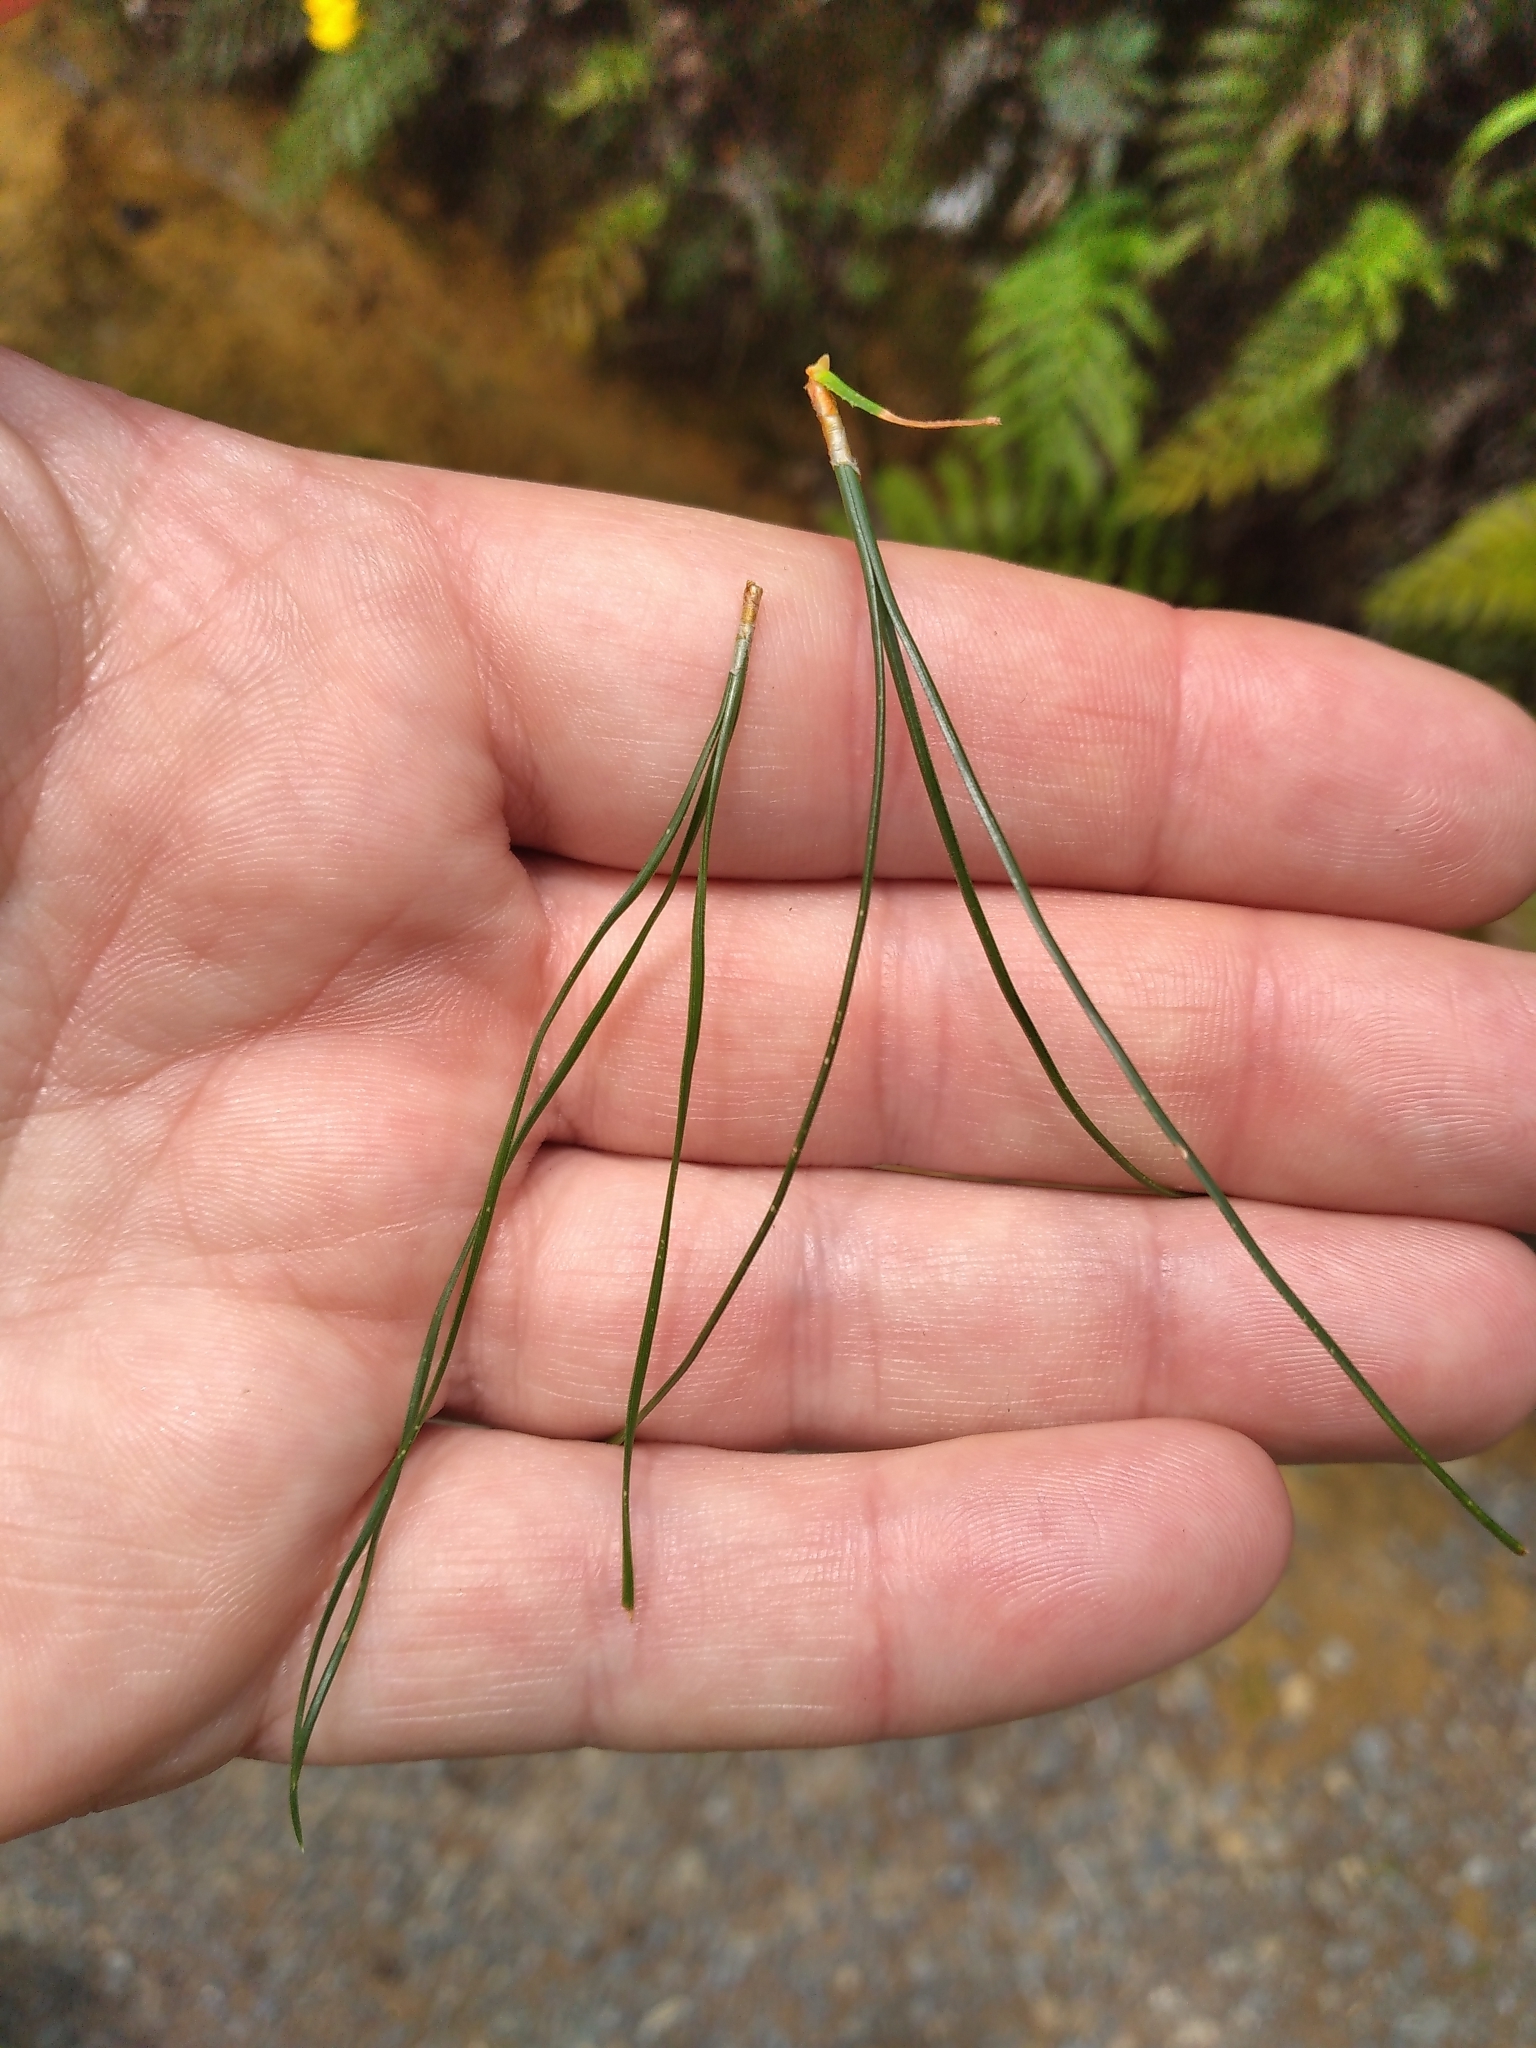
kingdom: Plantae
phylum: Tracheophyta
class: Pinopsida
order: Pinales
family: Pinaceae
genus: Pinus
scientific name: Pinus radiata
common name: Monterey pine
